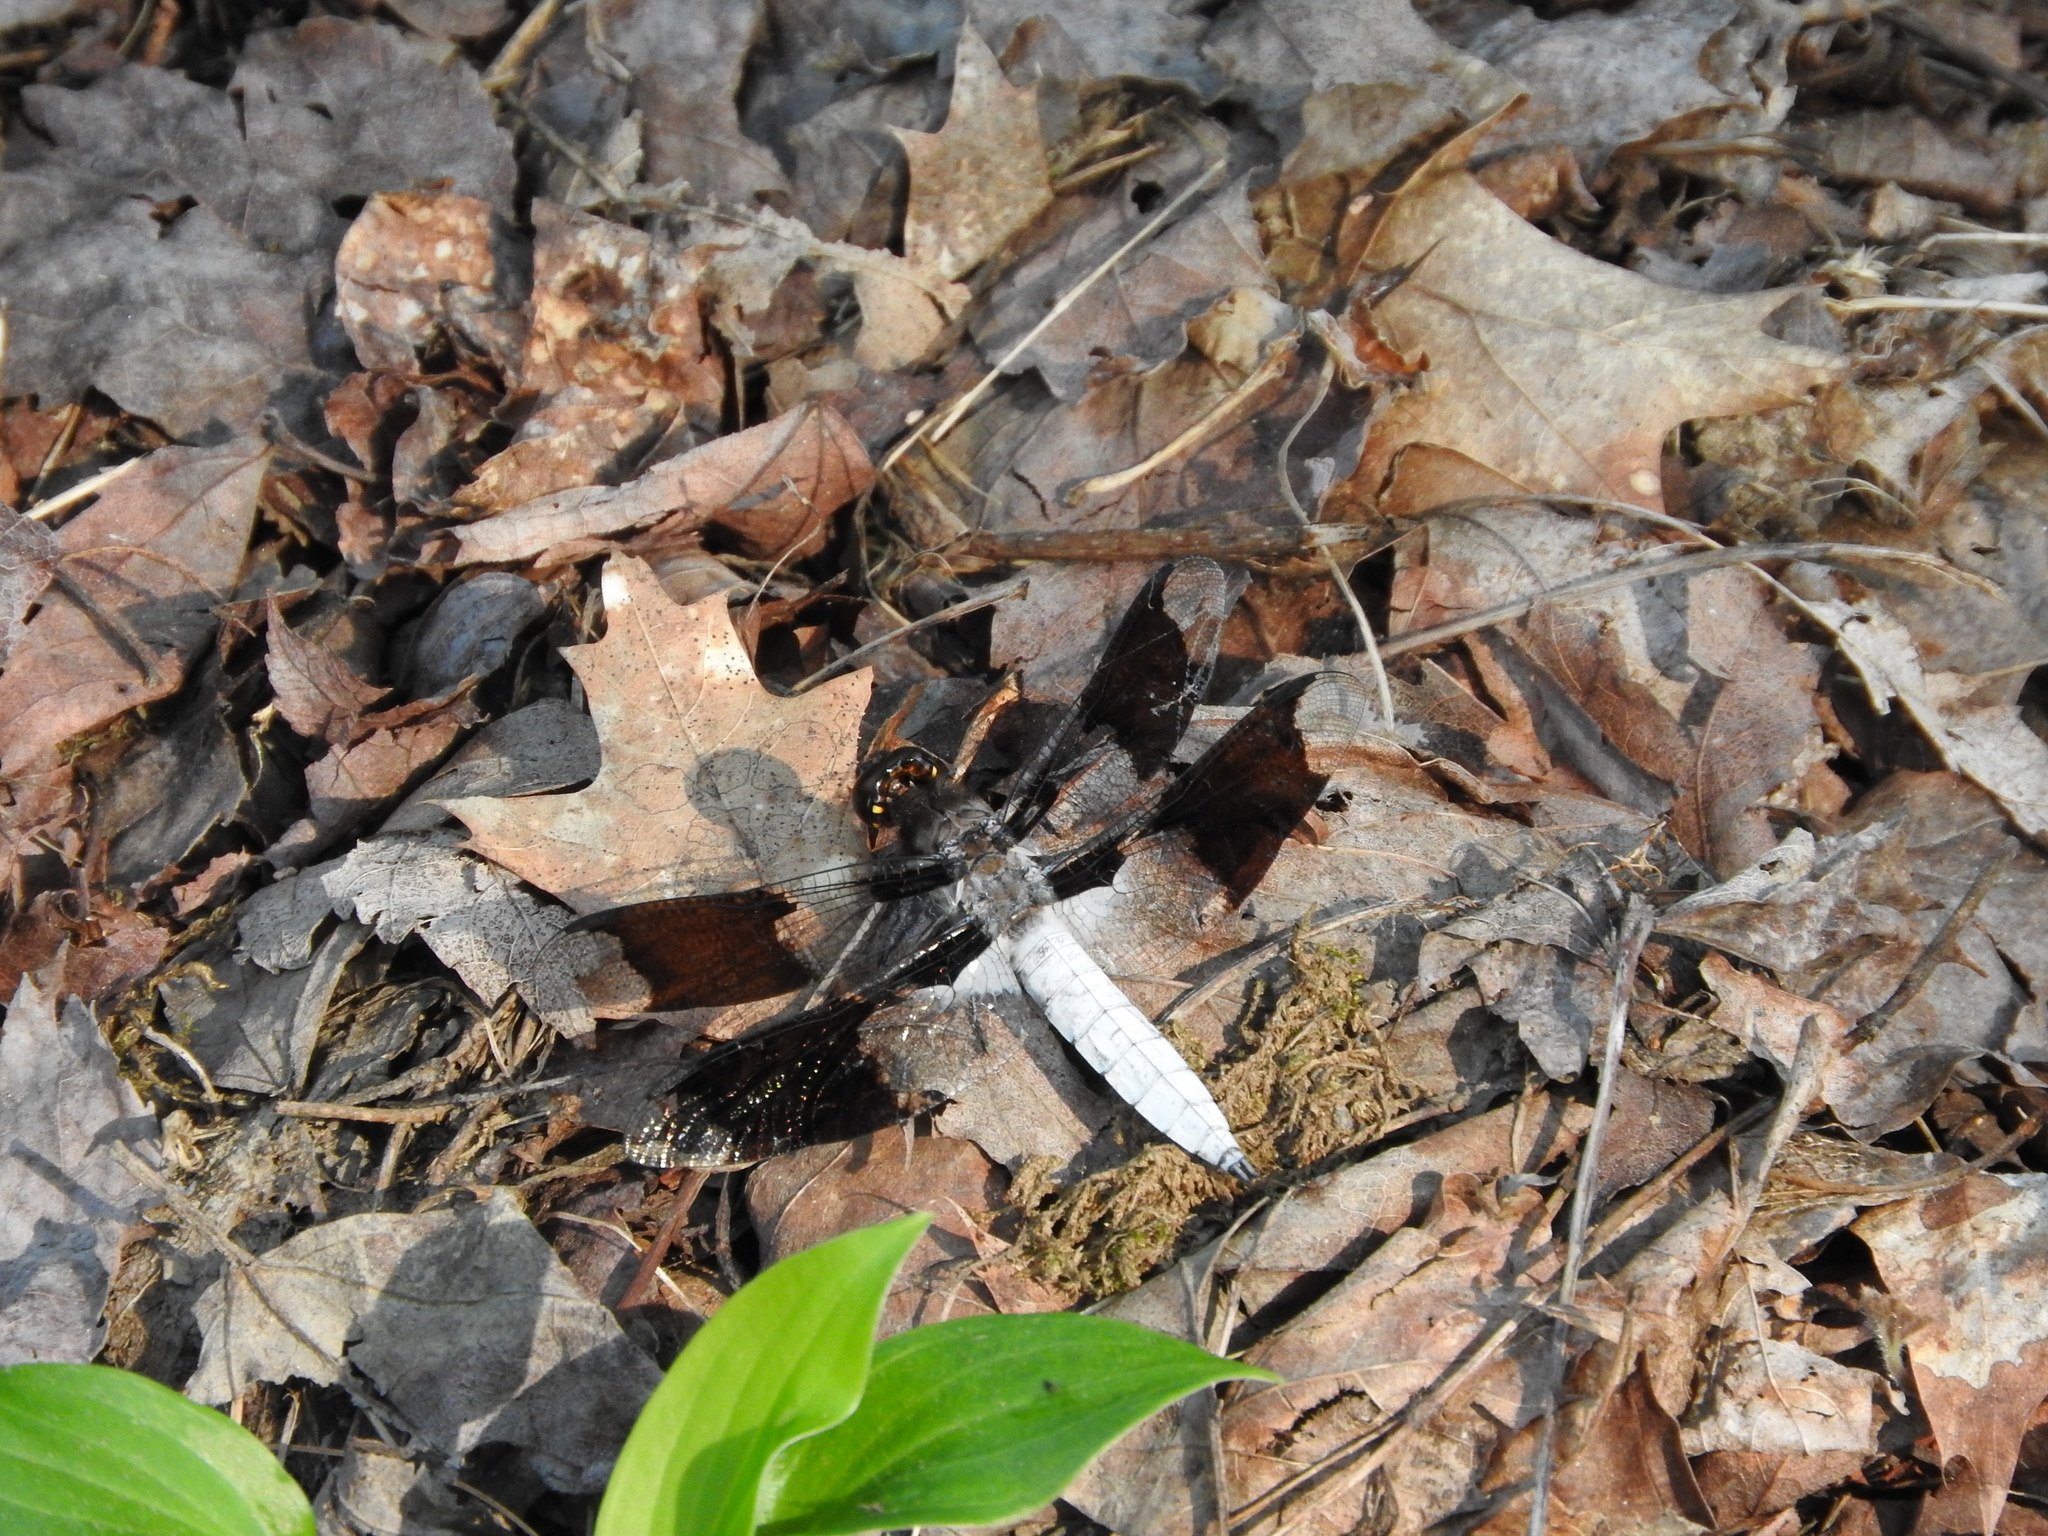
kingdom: Animalia
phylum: Arthropoda
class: Insecta
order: Odonata
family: Libellulidae
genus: Plathemis
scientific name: Plathemis lydia
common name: Common whitetail
